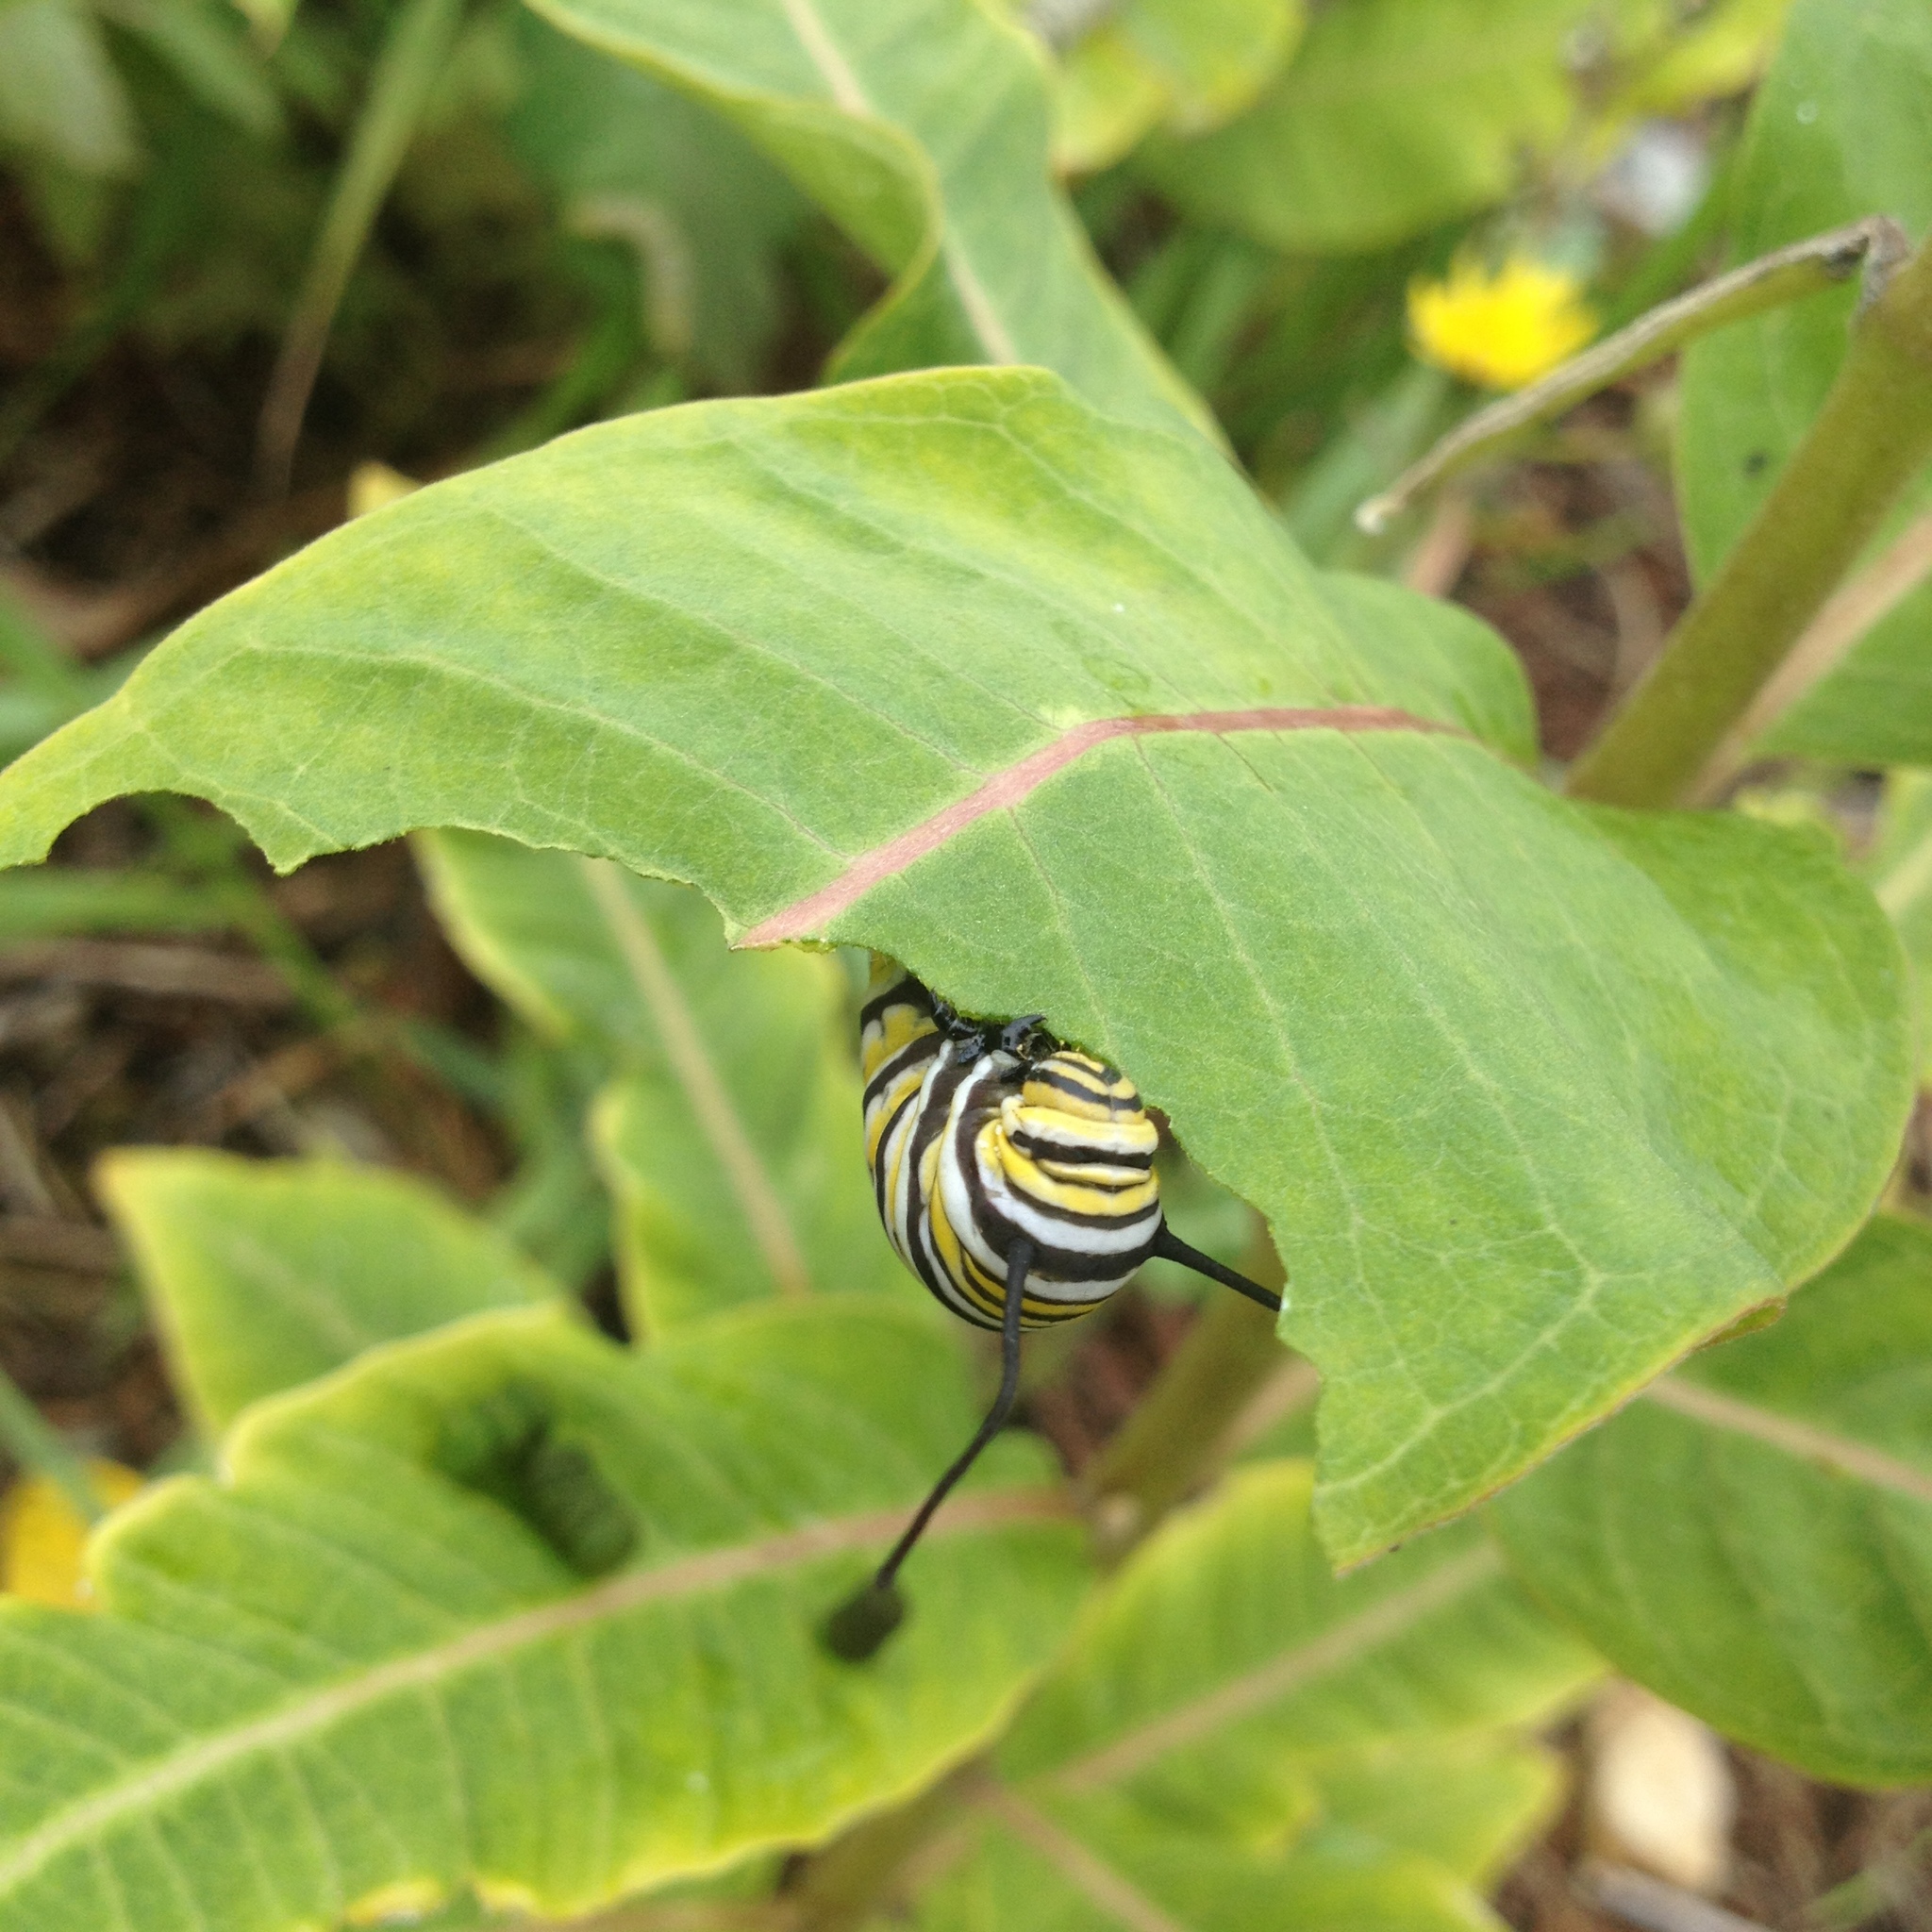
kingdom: Animalia
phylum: Arthropoda
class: Insecta
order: Lepidoptera
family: Nymphalidae
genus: Danaus
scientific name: Danaus plexippus
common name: Monarch
